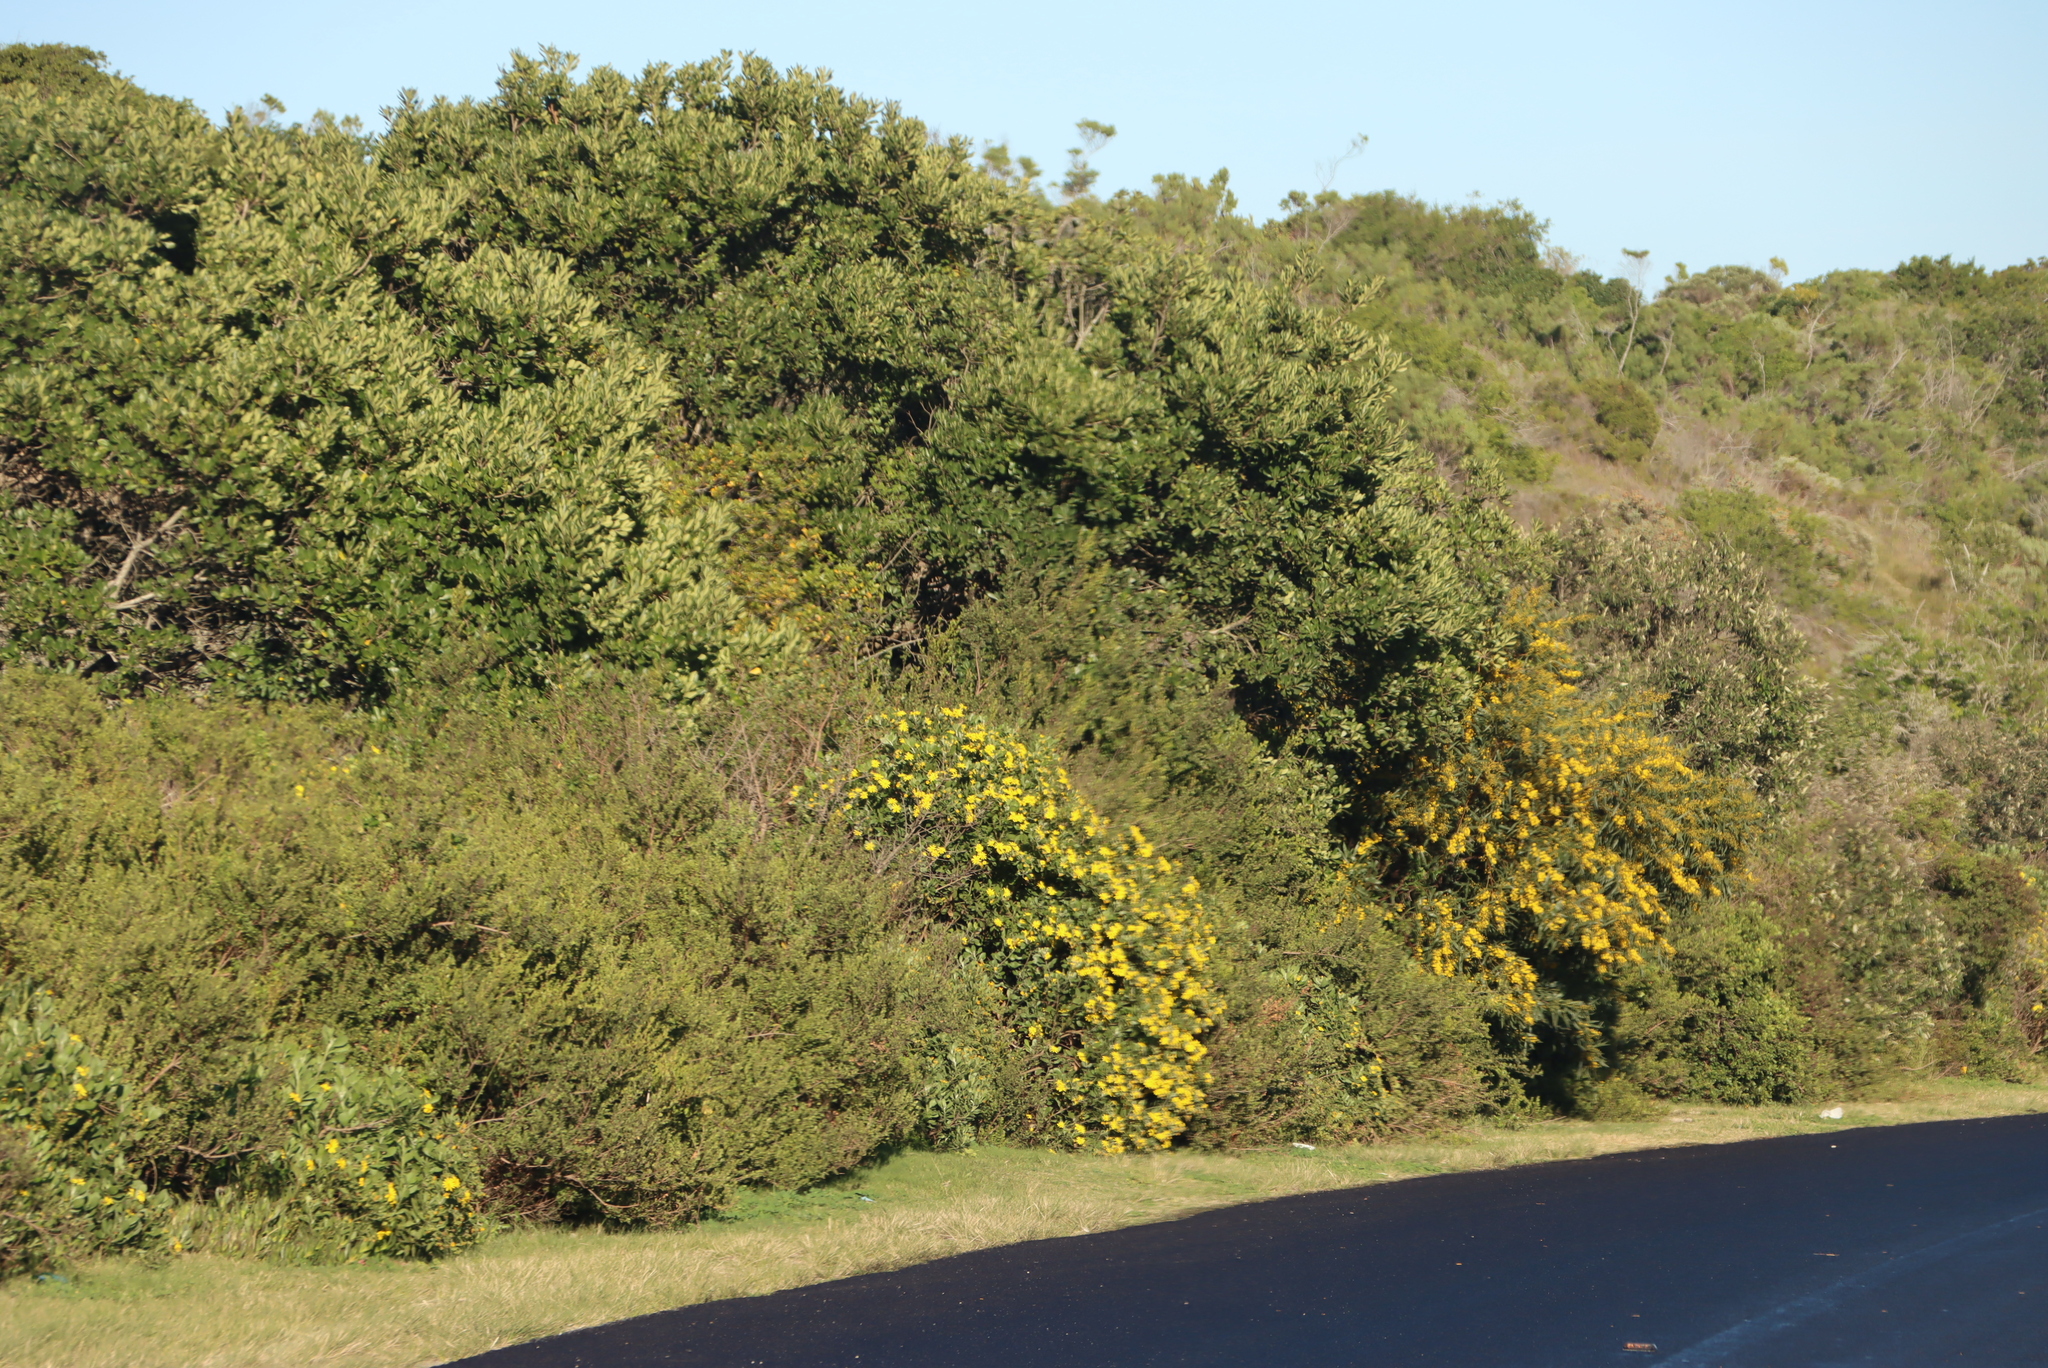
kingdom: Plantae
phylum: Tracheophyta
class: Magnoliopsida
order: Asterales
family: Asteraceae
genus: Osteospermum
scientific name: Osteospermum moniliferum
